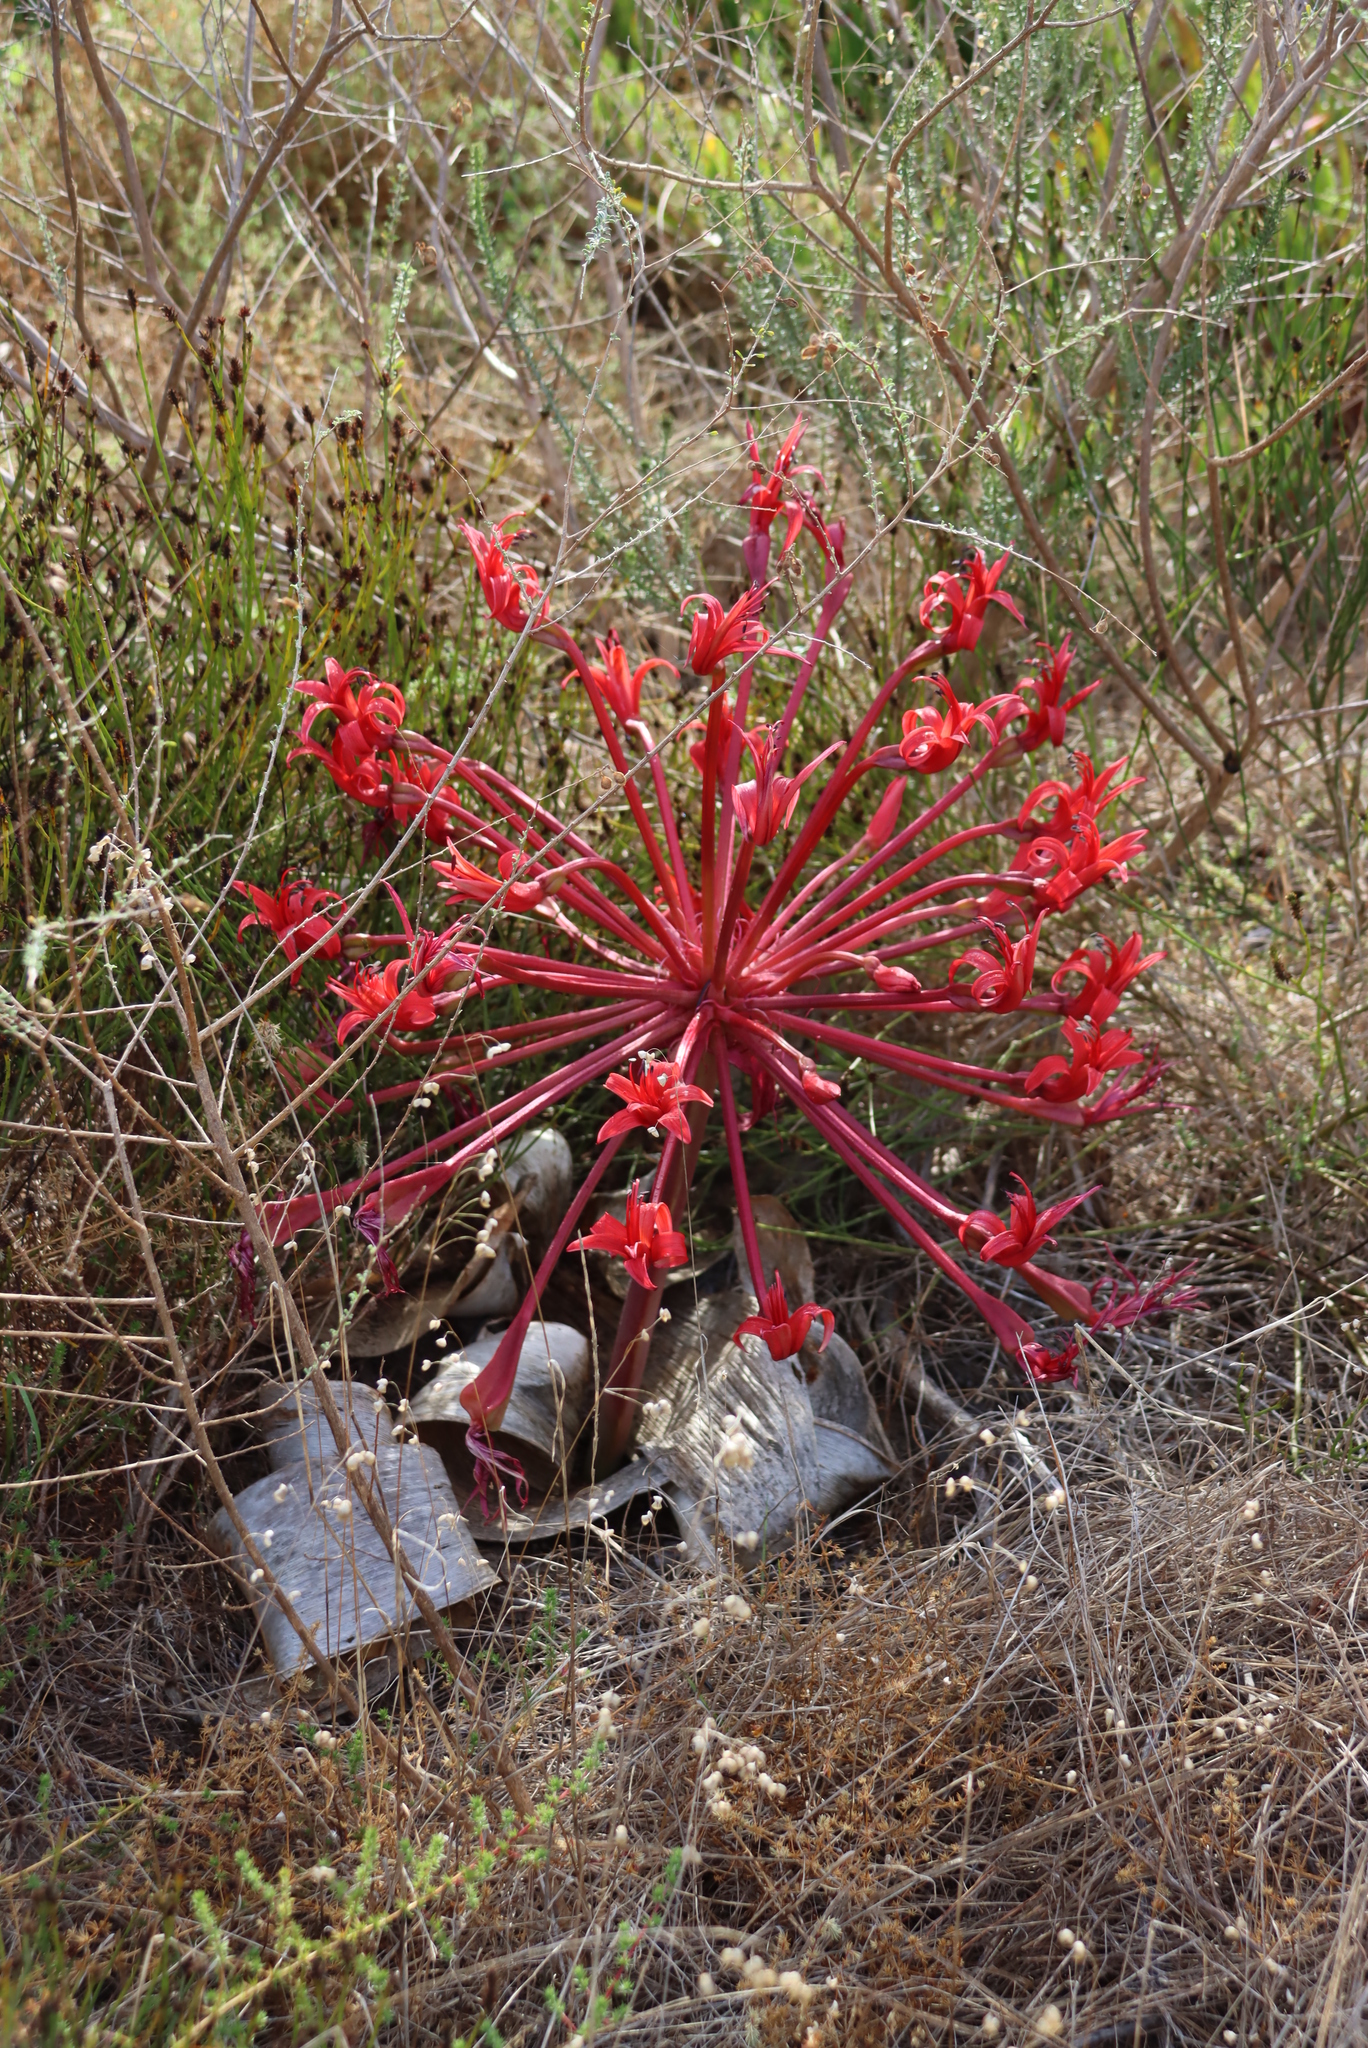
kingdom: Plantae
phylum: Tracheophyta
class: Liliopsida
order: Asparagales
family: Amaryllidaceae
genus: Brunsvigia
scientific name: Brunsvigia orientalis
